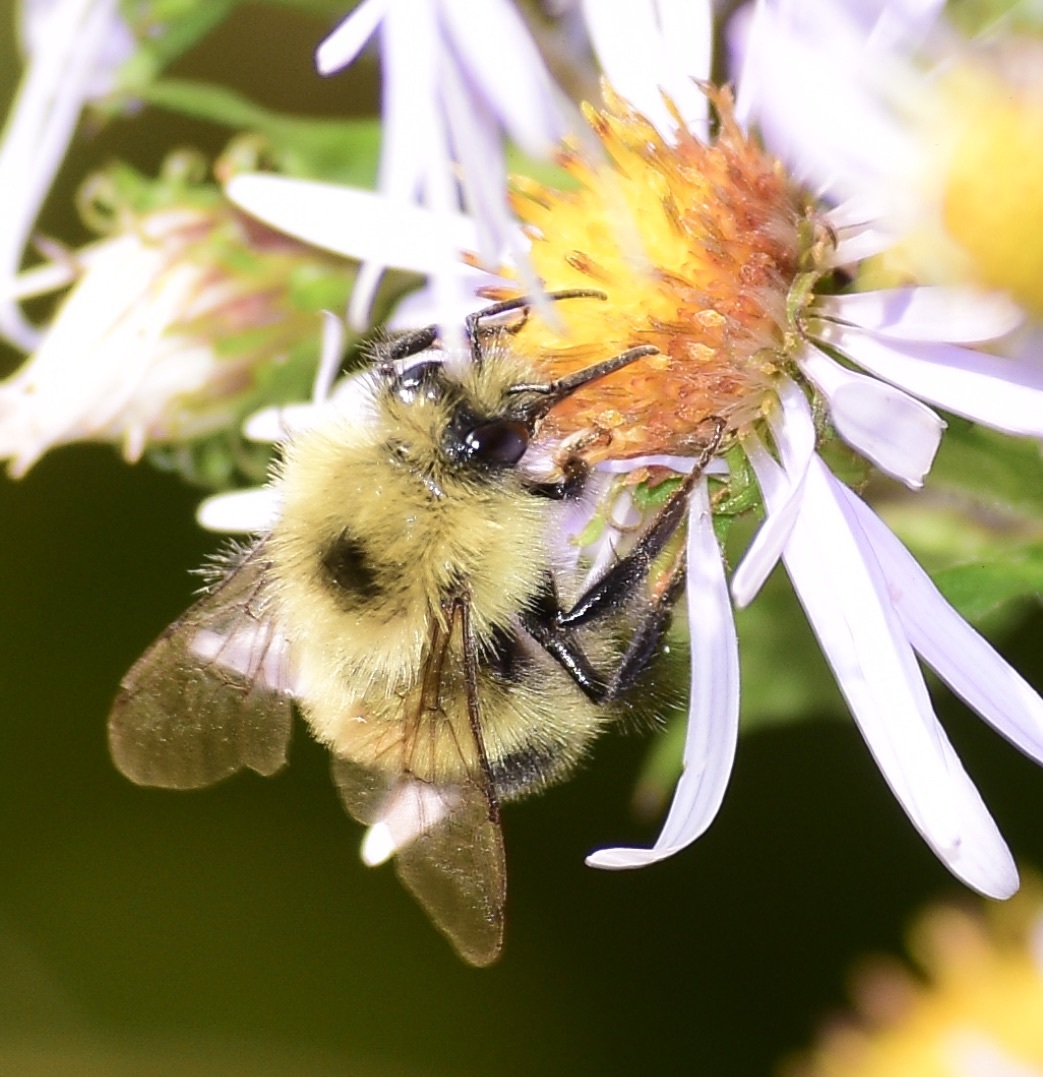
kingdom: Animalia
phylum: Arthropoda
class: Insecta
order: Hymenoptera
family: Apidae
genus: Pyrobombus
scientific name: Pyrobombus
